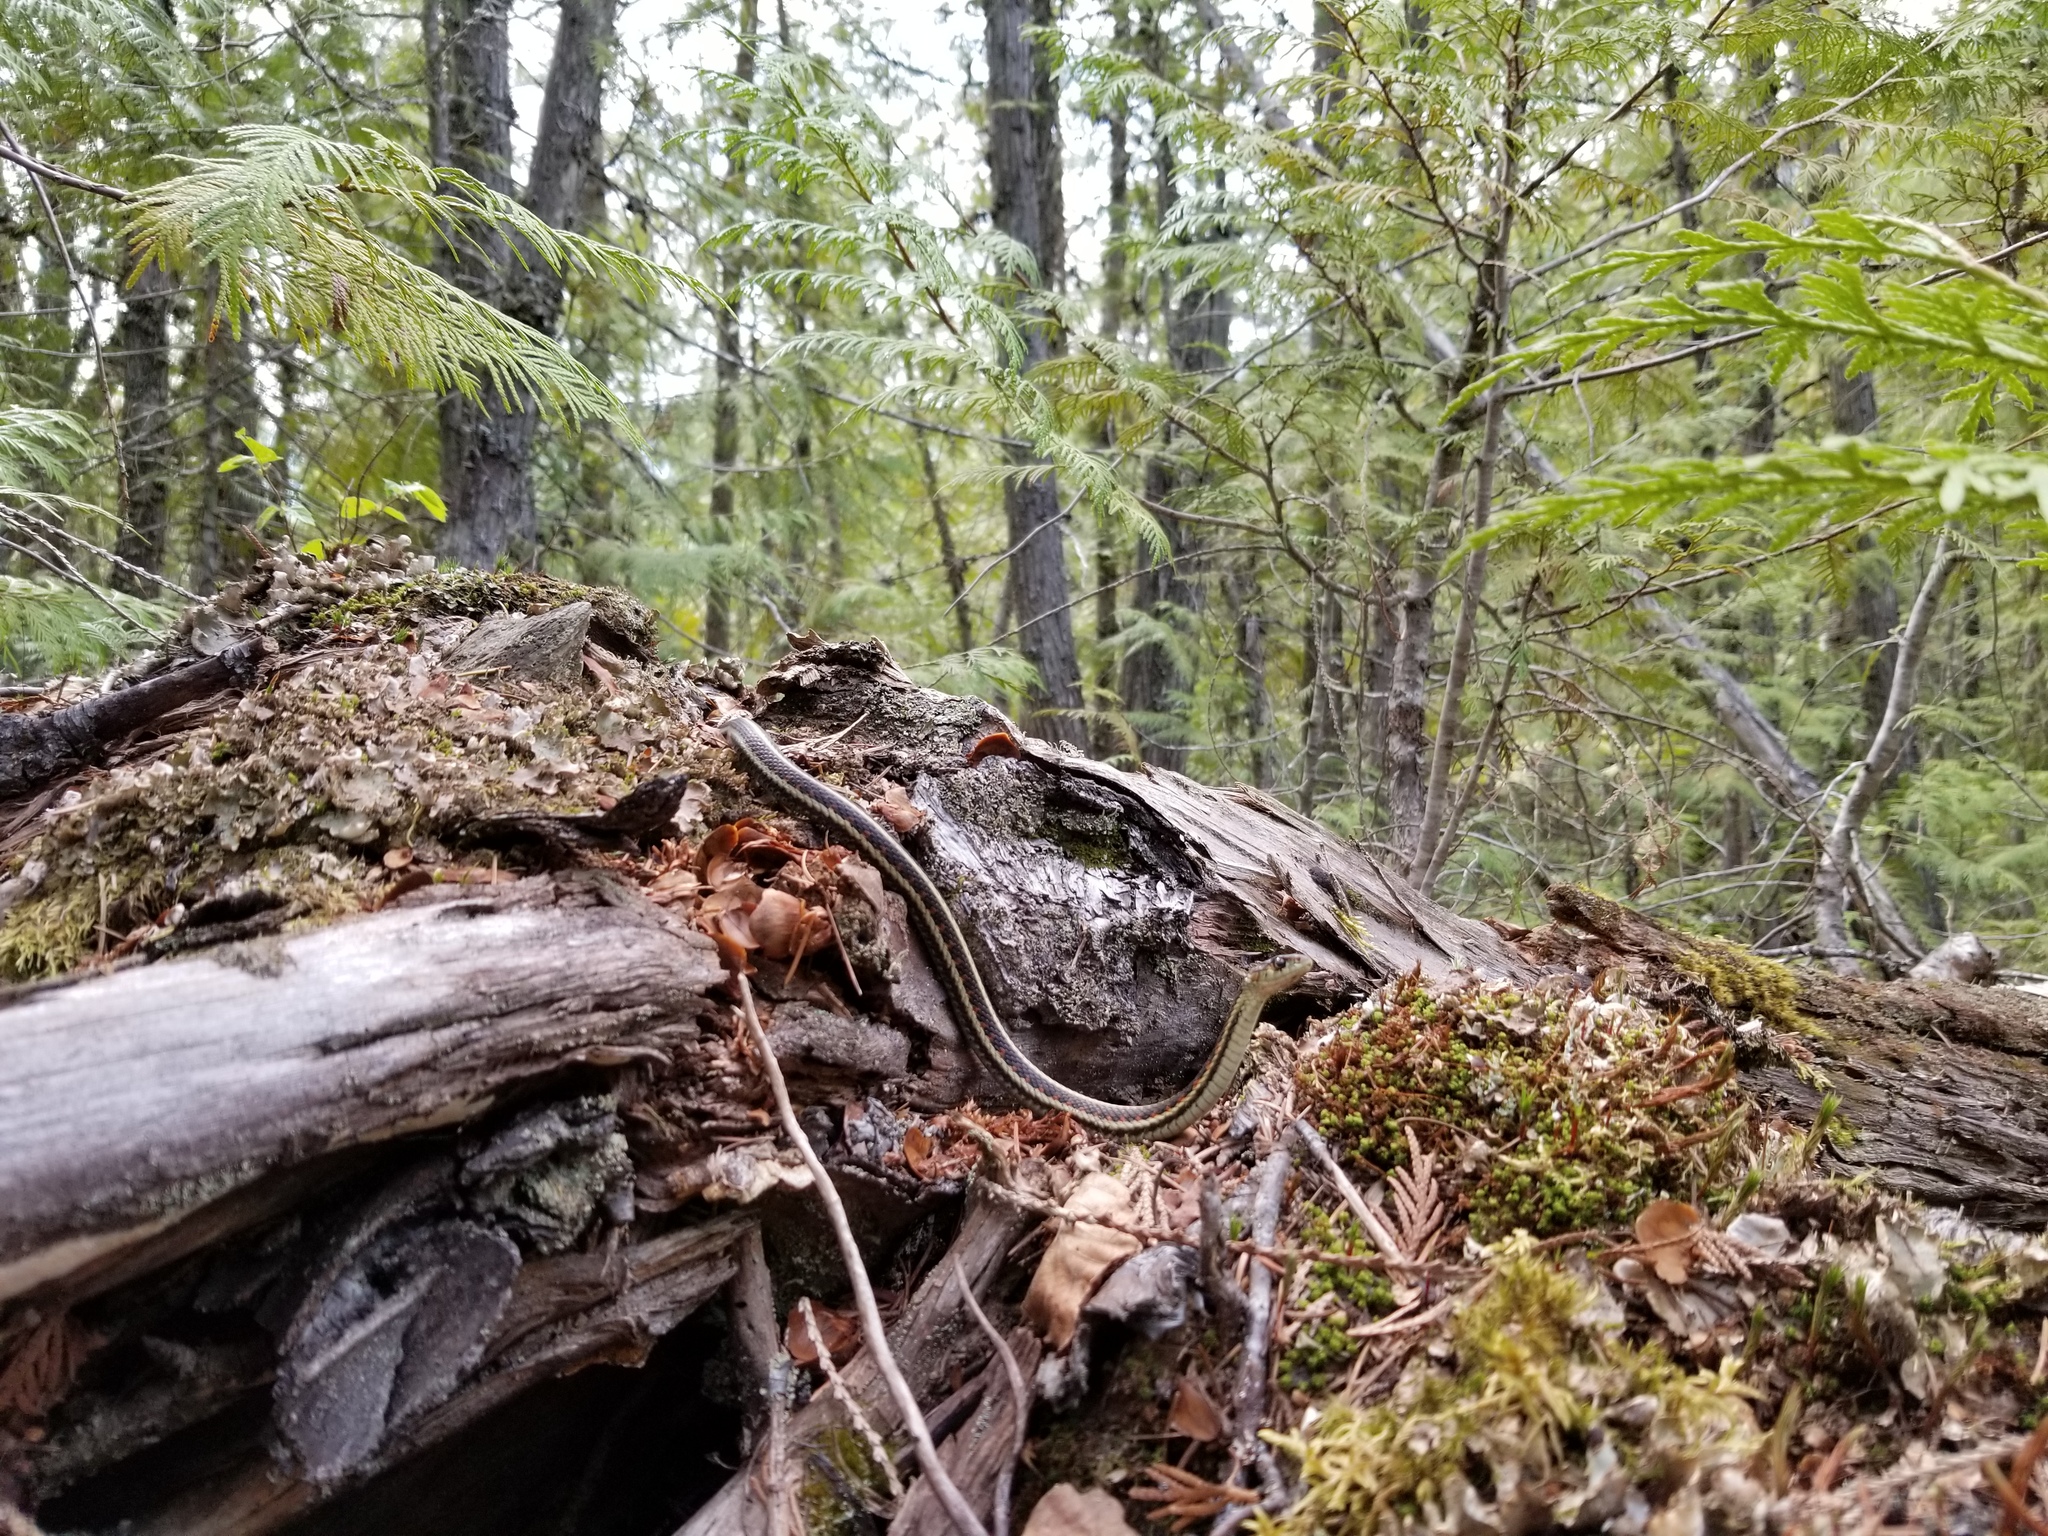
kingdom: Animalia
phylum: Chordata
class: Squamata
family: Colubridae
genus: Thamnophis
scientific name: Thamnophis sirtalis
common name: Common garter snake
